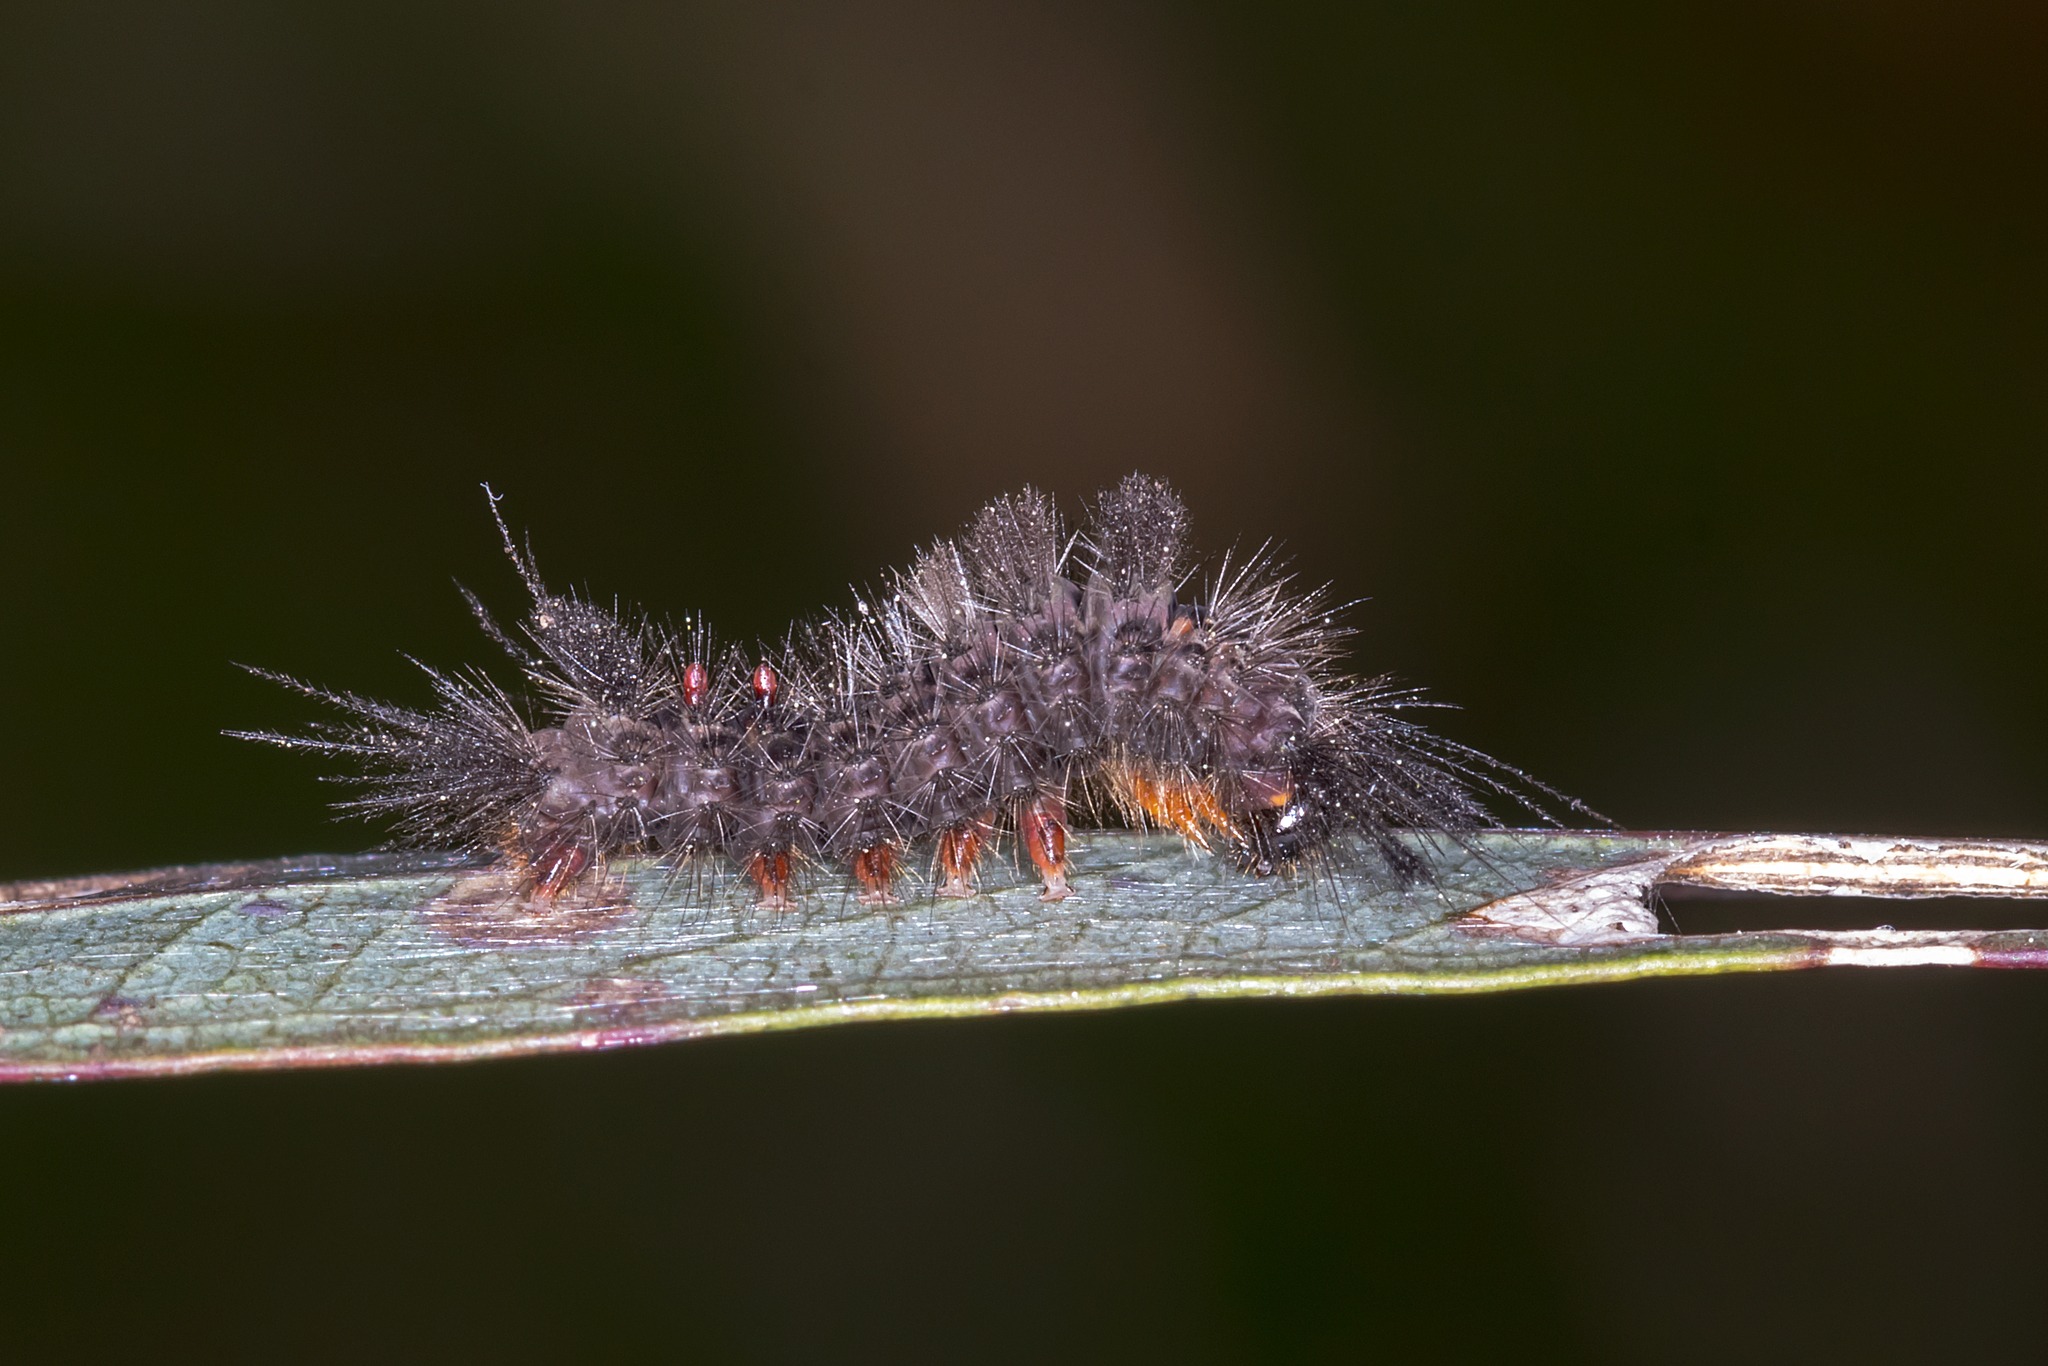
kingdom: Animalia
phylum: Arthropoda
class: Insecta
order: Lepidoptera
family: Erebidae
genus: Orgyia
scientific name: Orgyia
